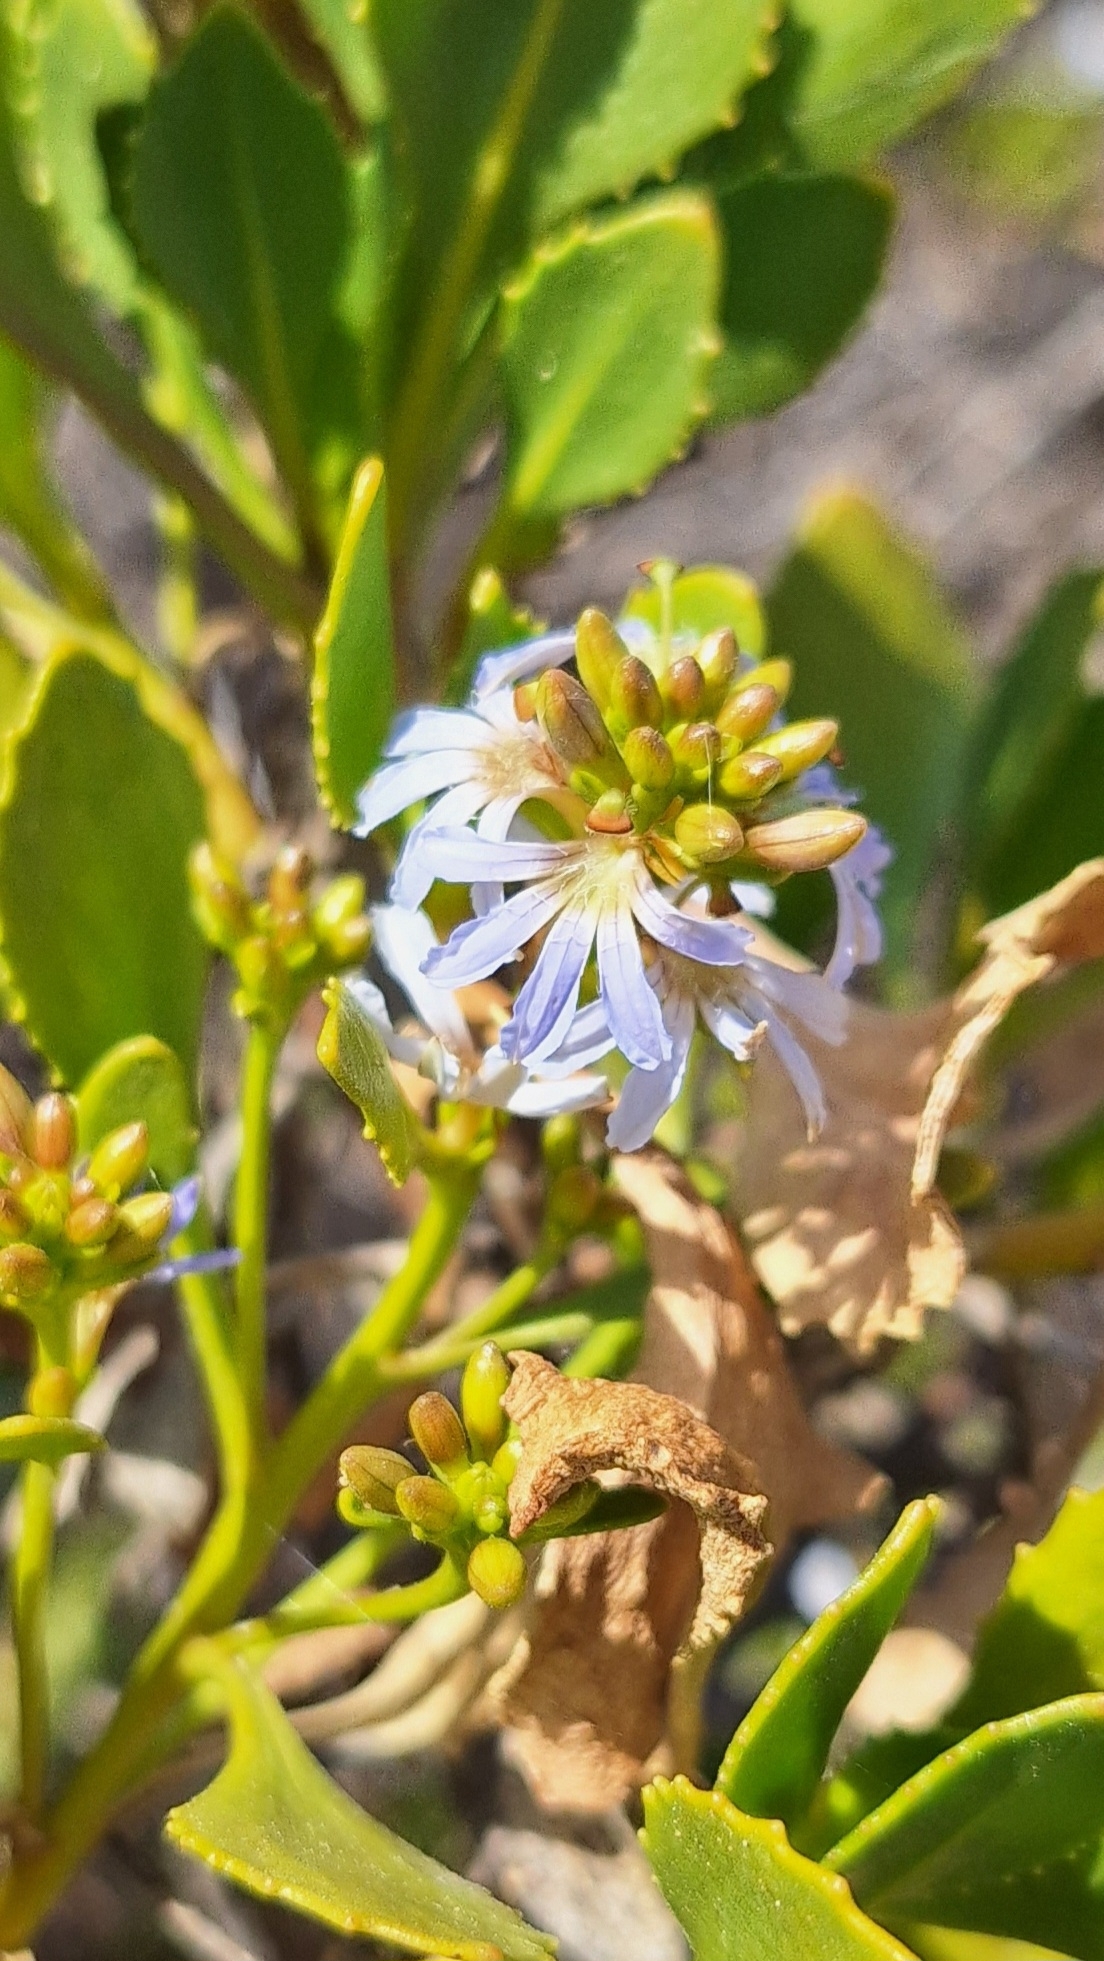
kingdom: Plantae
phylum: Tracheophyta
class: Magnoliopsida
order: Asterales
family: Goodeniaceae
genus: Scaevola
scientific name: Scaevola crassifolia
